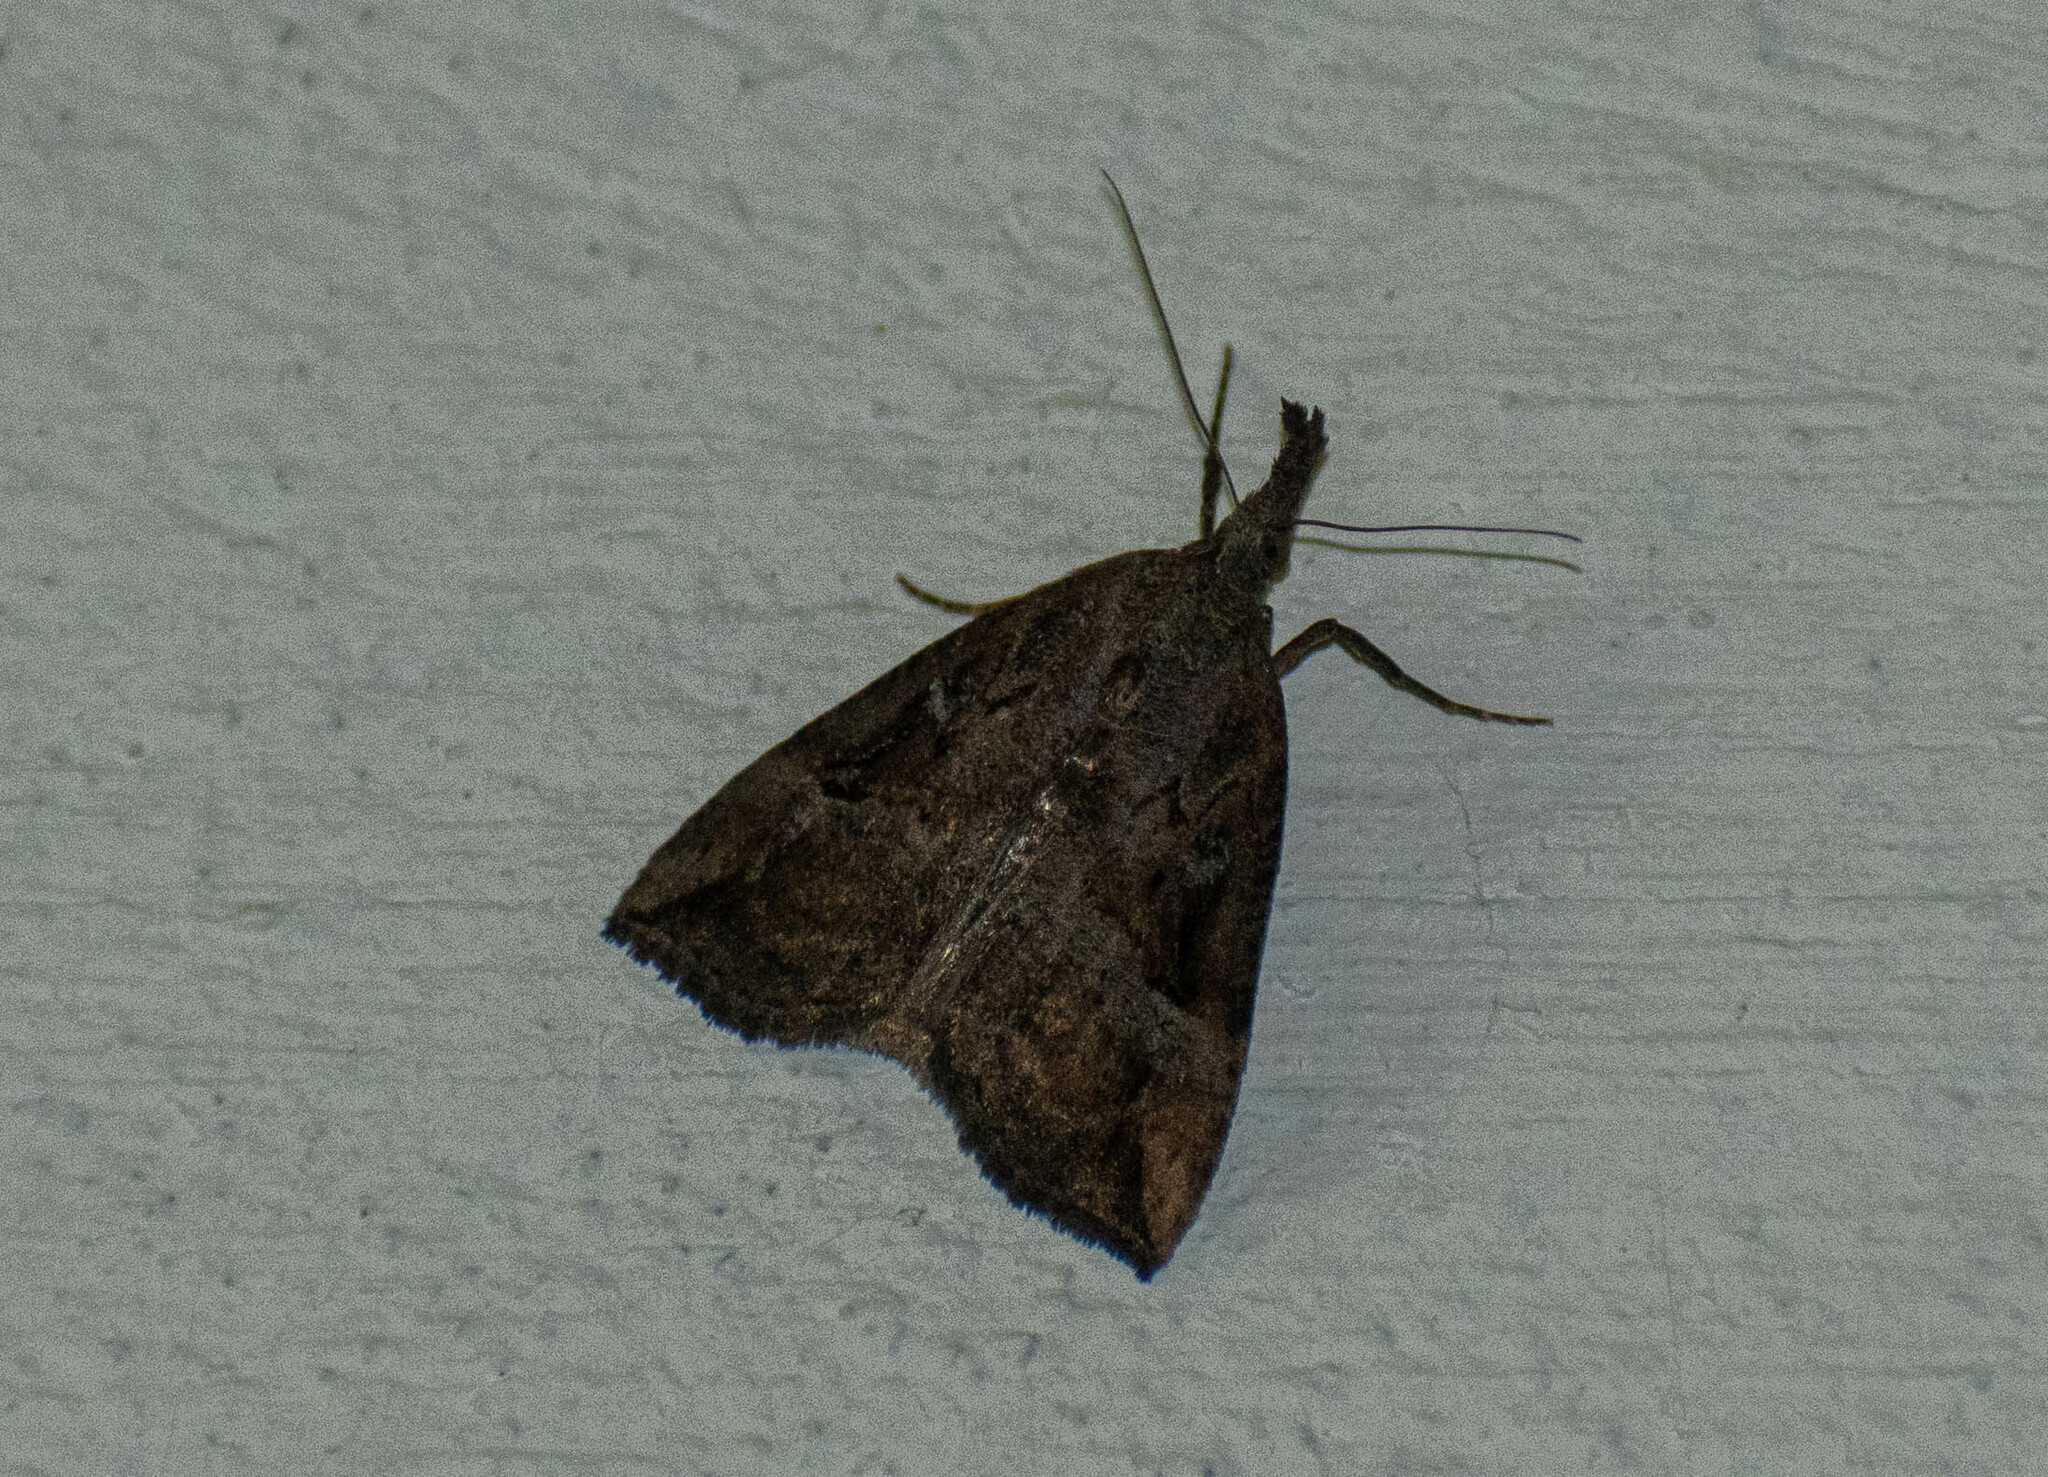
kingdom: Animalia
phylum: Arthropoda
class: Insecta
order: Lepidoptera
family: Erebidae
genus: Hypena
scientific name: Hypena rostralis
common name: Buttoned snout
